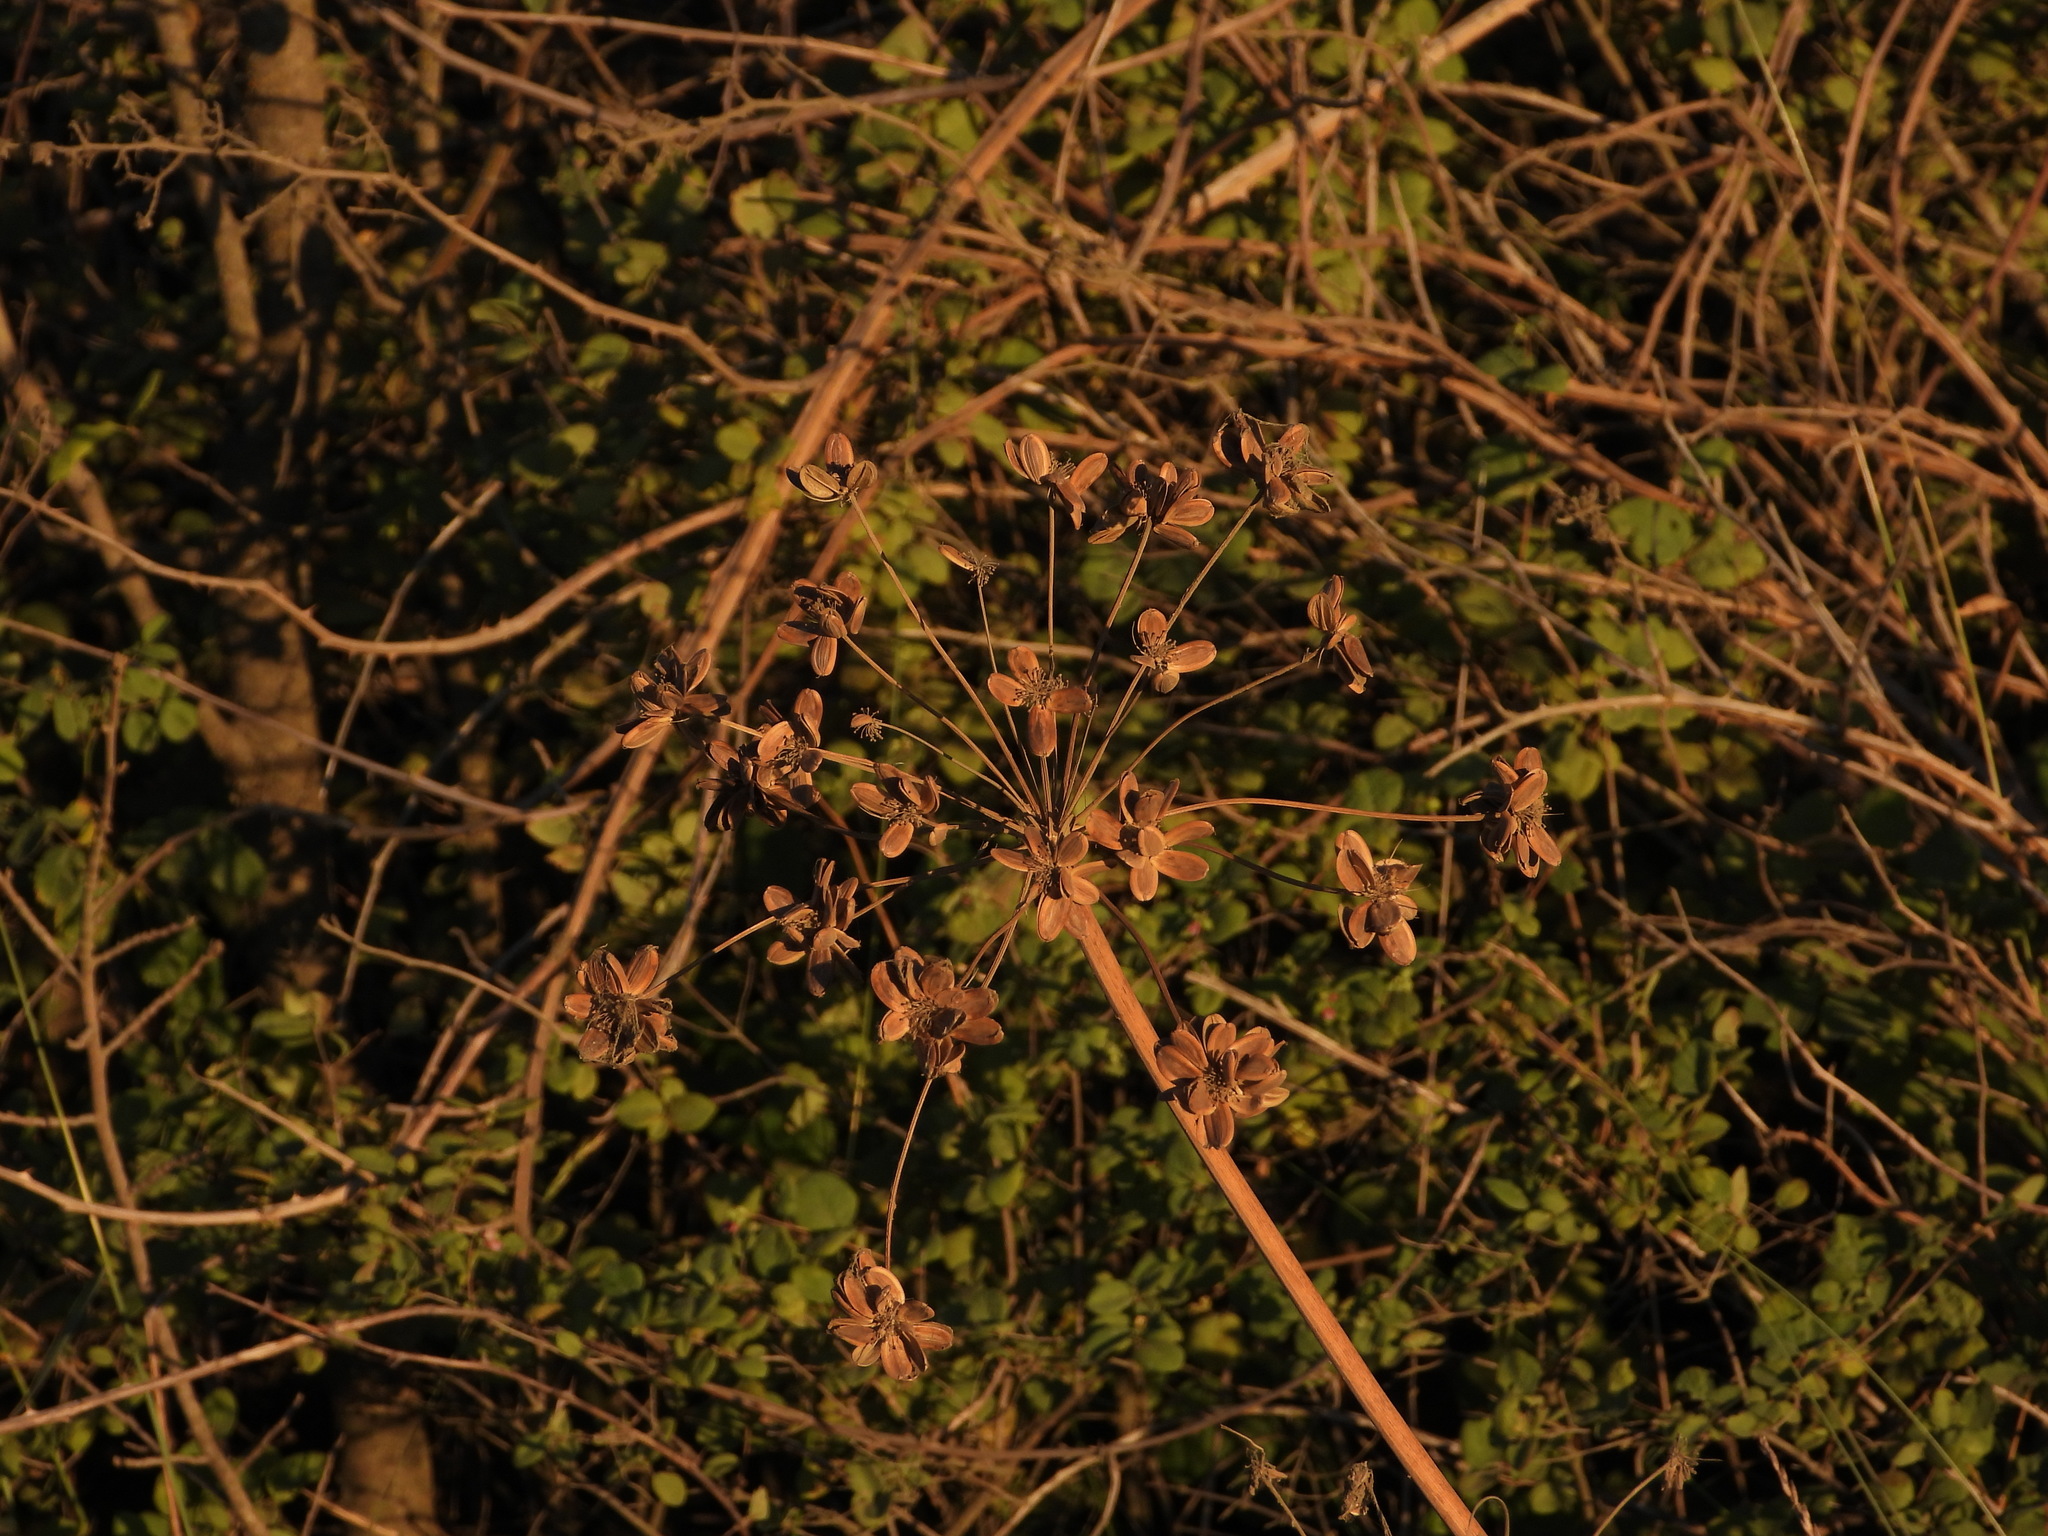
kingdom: Plantae
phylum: Tracheophyta
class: Magnoliopsida
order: Apiales
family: Apiaceae
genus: Lomatium
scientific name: Lomatium dissectum
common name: Lomatium
